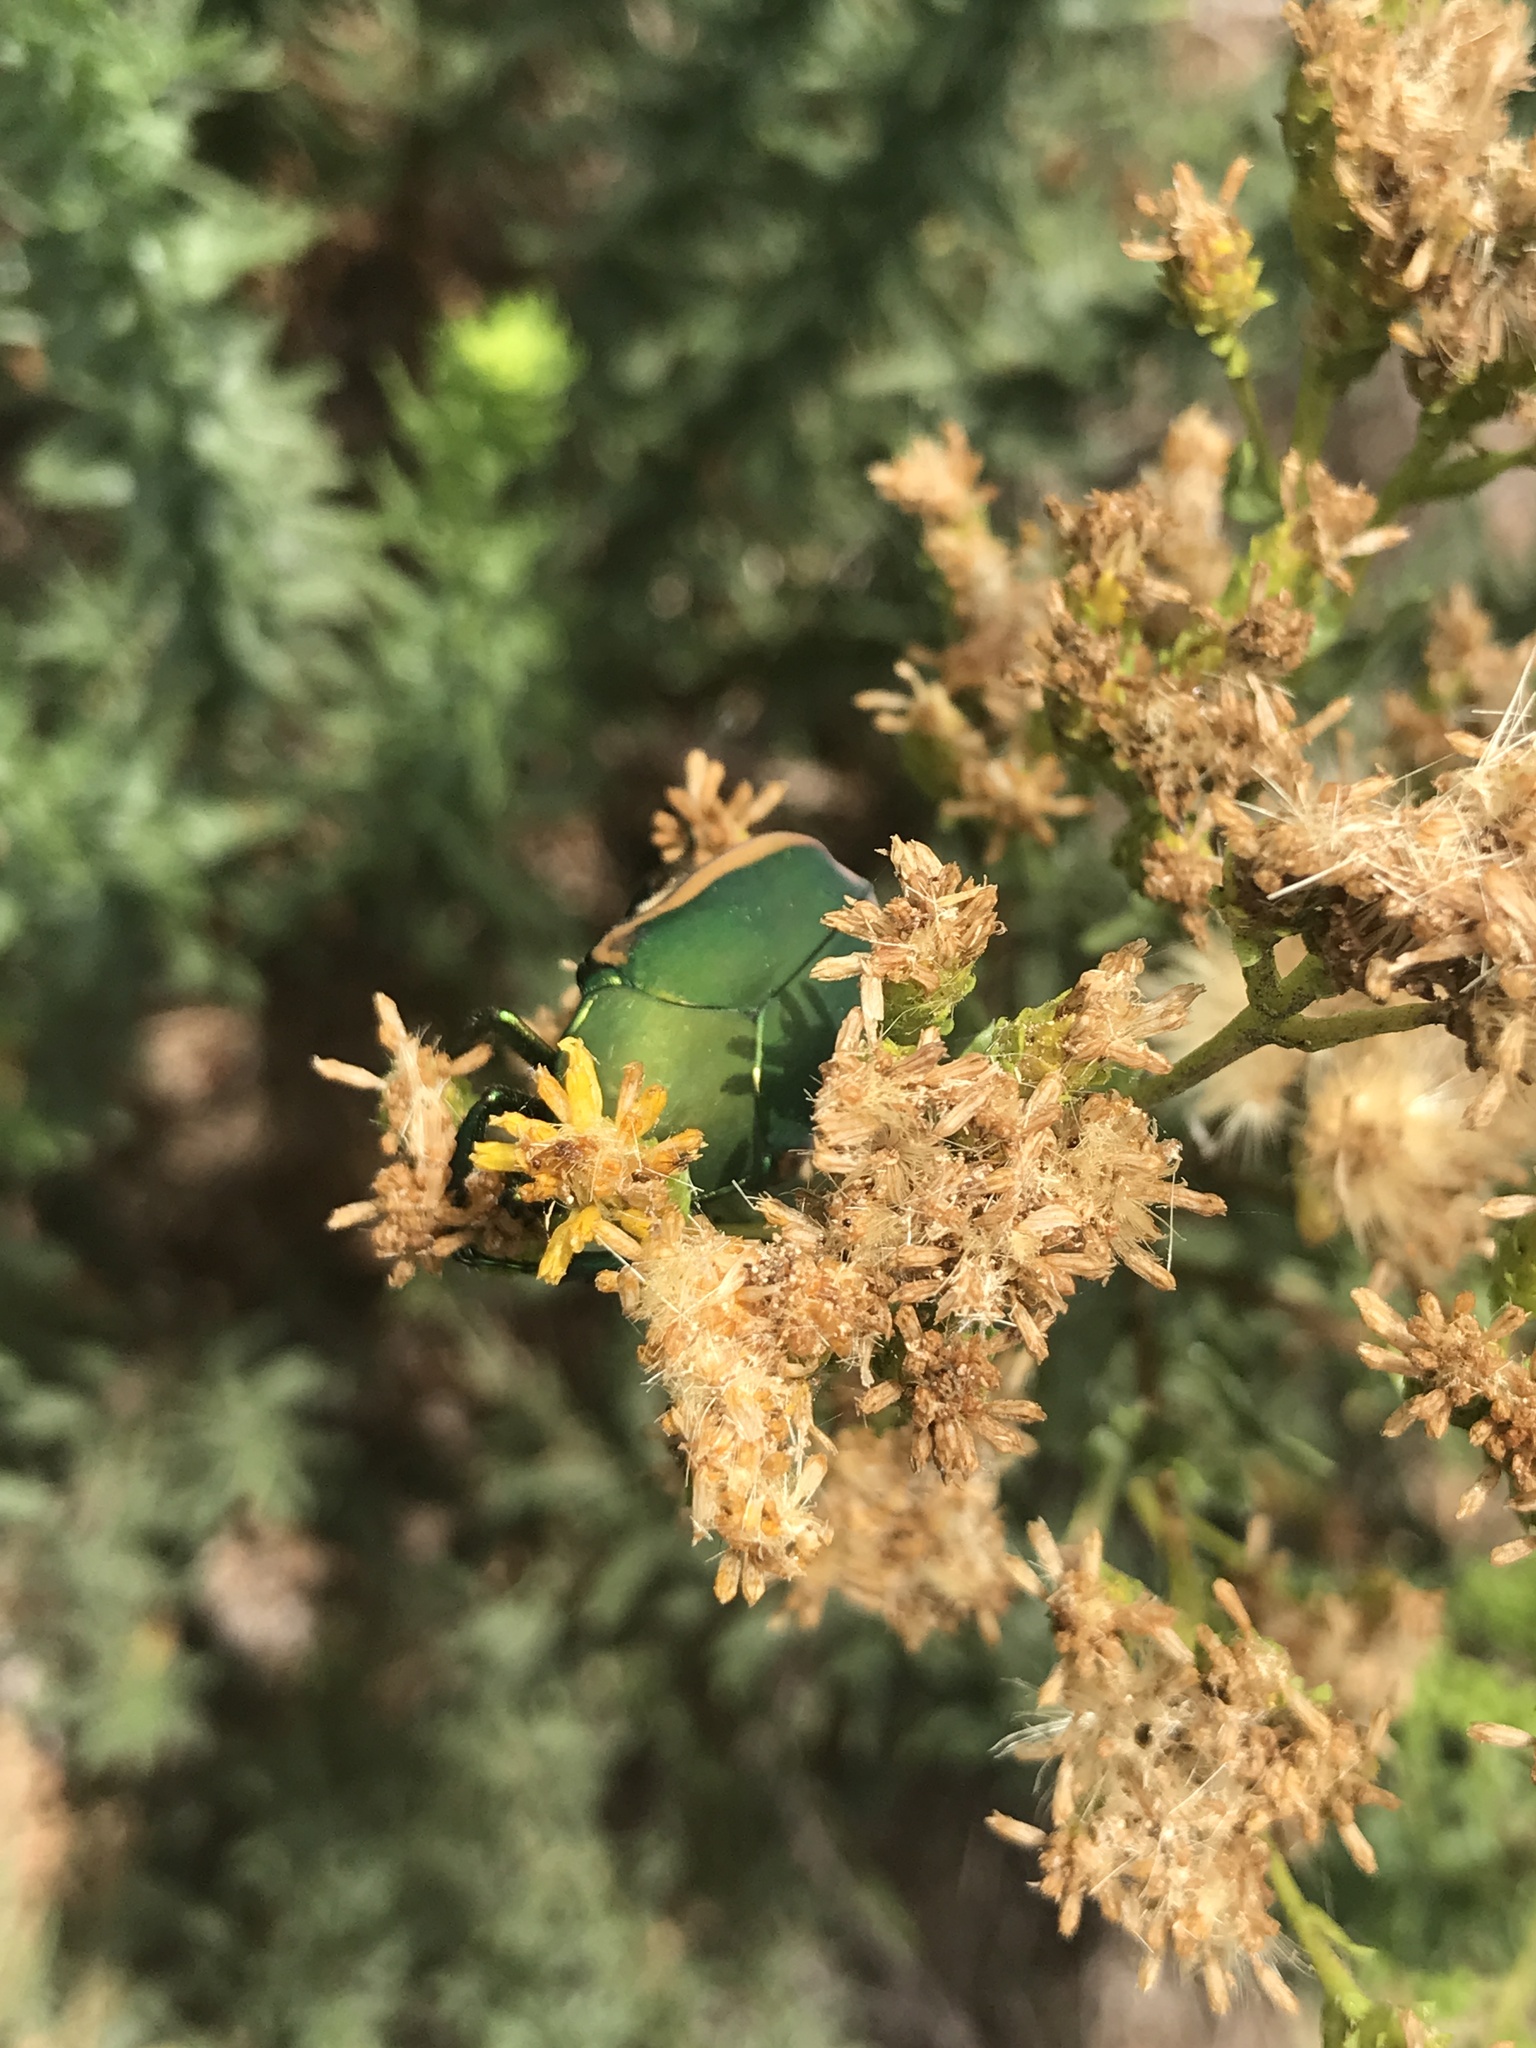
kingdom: Animalia
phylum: Arthropoda
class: Insecta
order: Coleoptera
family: Scarabaeidae
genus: Cotinis
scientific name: Cotinis mutabilis
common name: Figeater beetle
